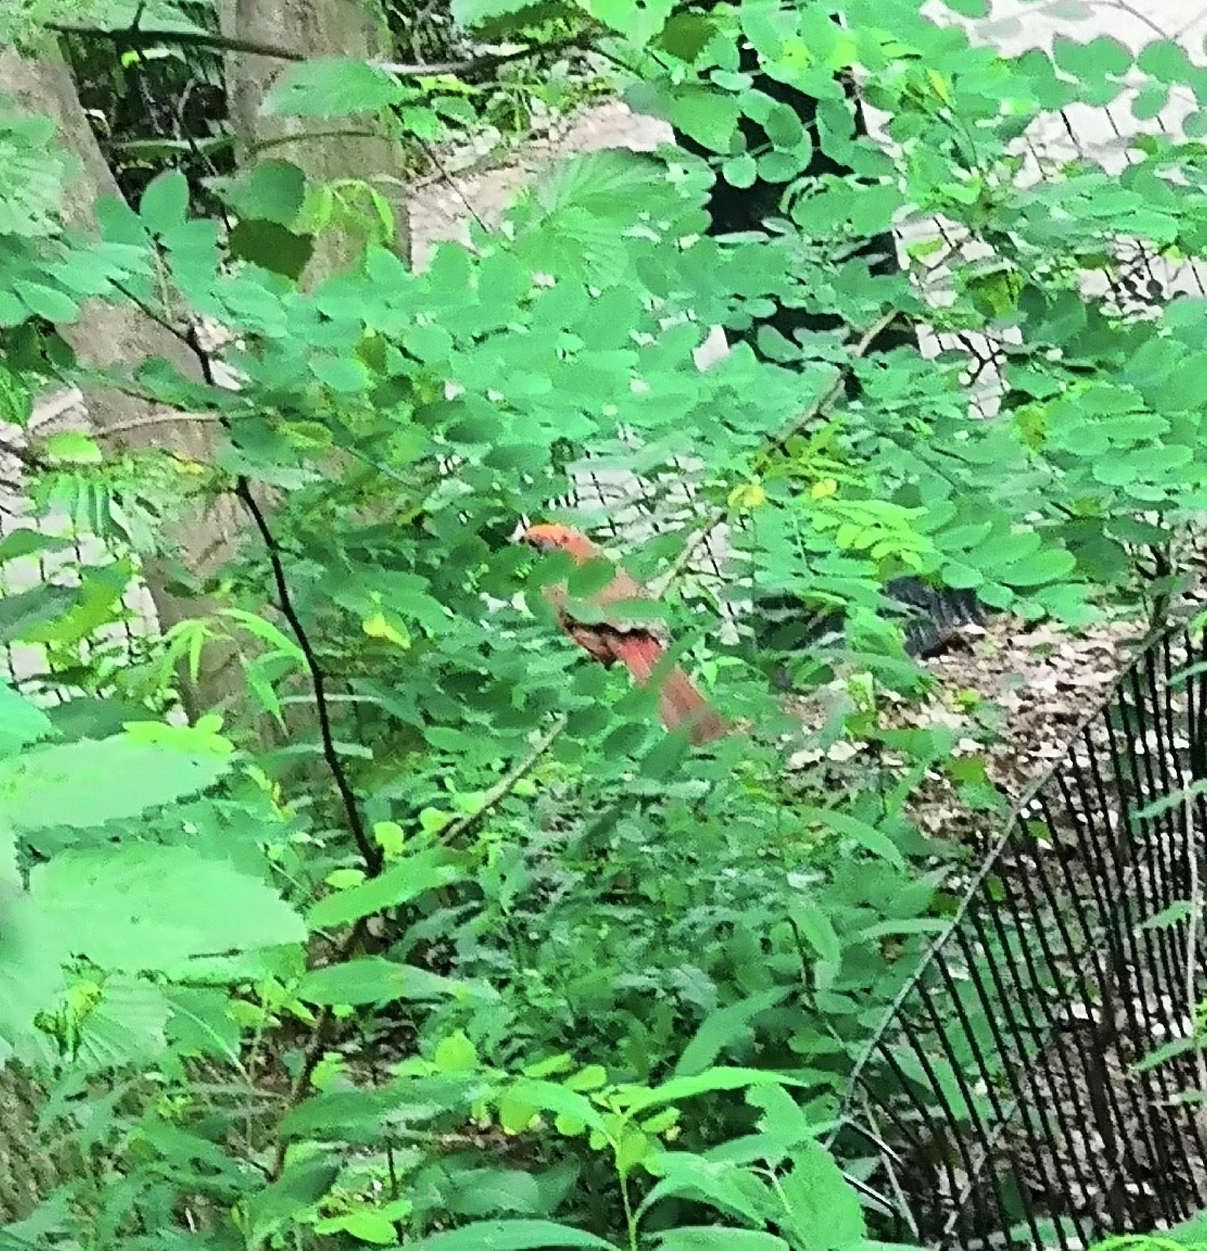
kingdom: Animalia
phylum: Chordata
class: Aves
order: Passeriformes
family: Cardinalidae
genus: Cardinalis
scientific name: Cardinalis cardinalis
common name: Northern cardinal
